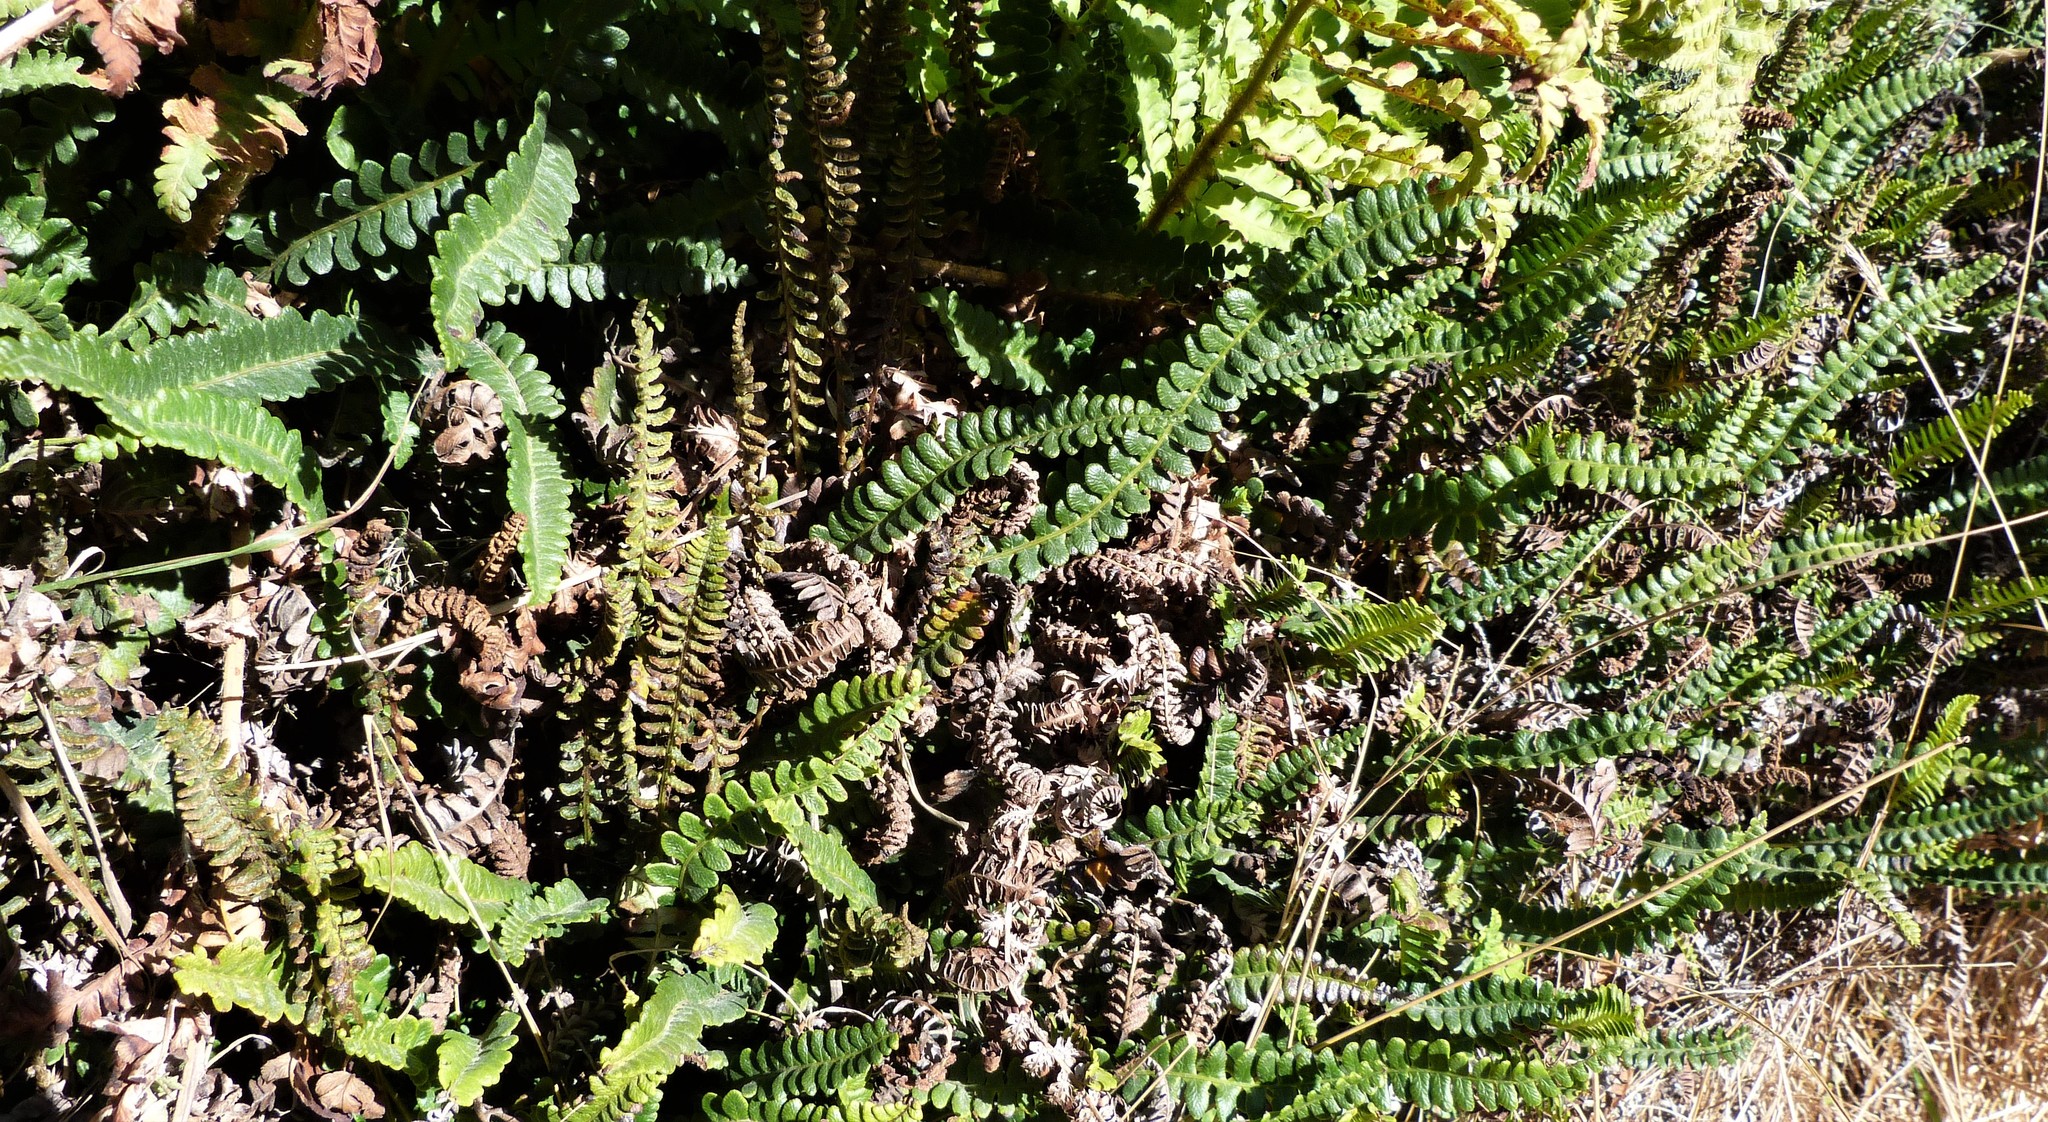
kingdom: Plantae
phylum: Tracheophyta
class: Polypodiopsida
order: Polypodiales
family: Blechnaceae
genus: Austroblechnum
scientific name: Austroblechnum penna-marina
